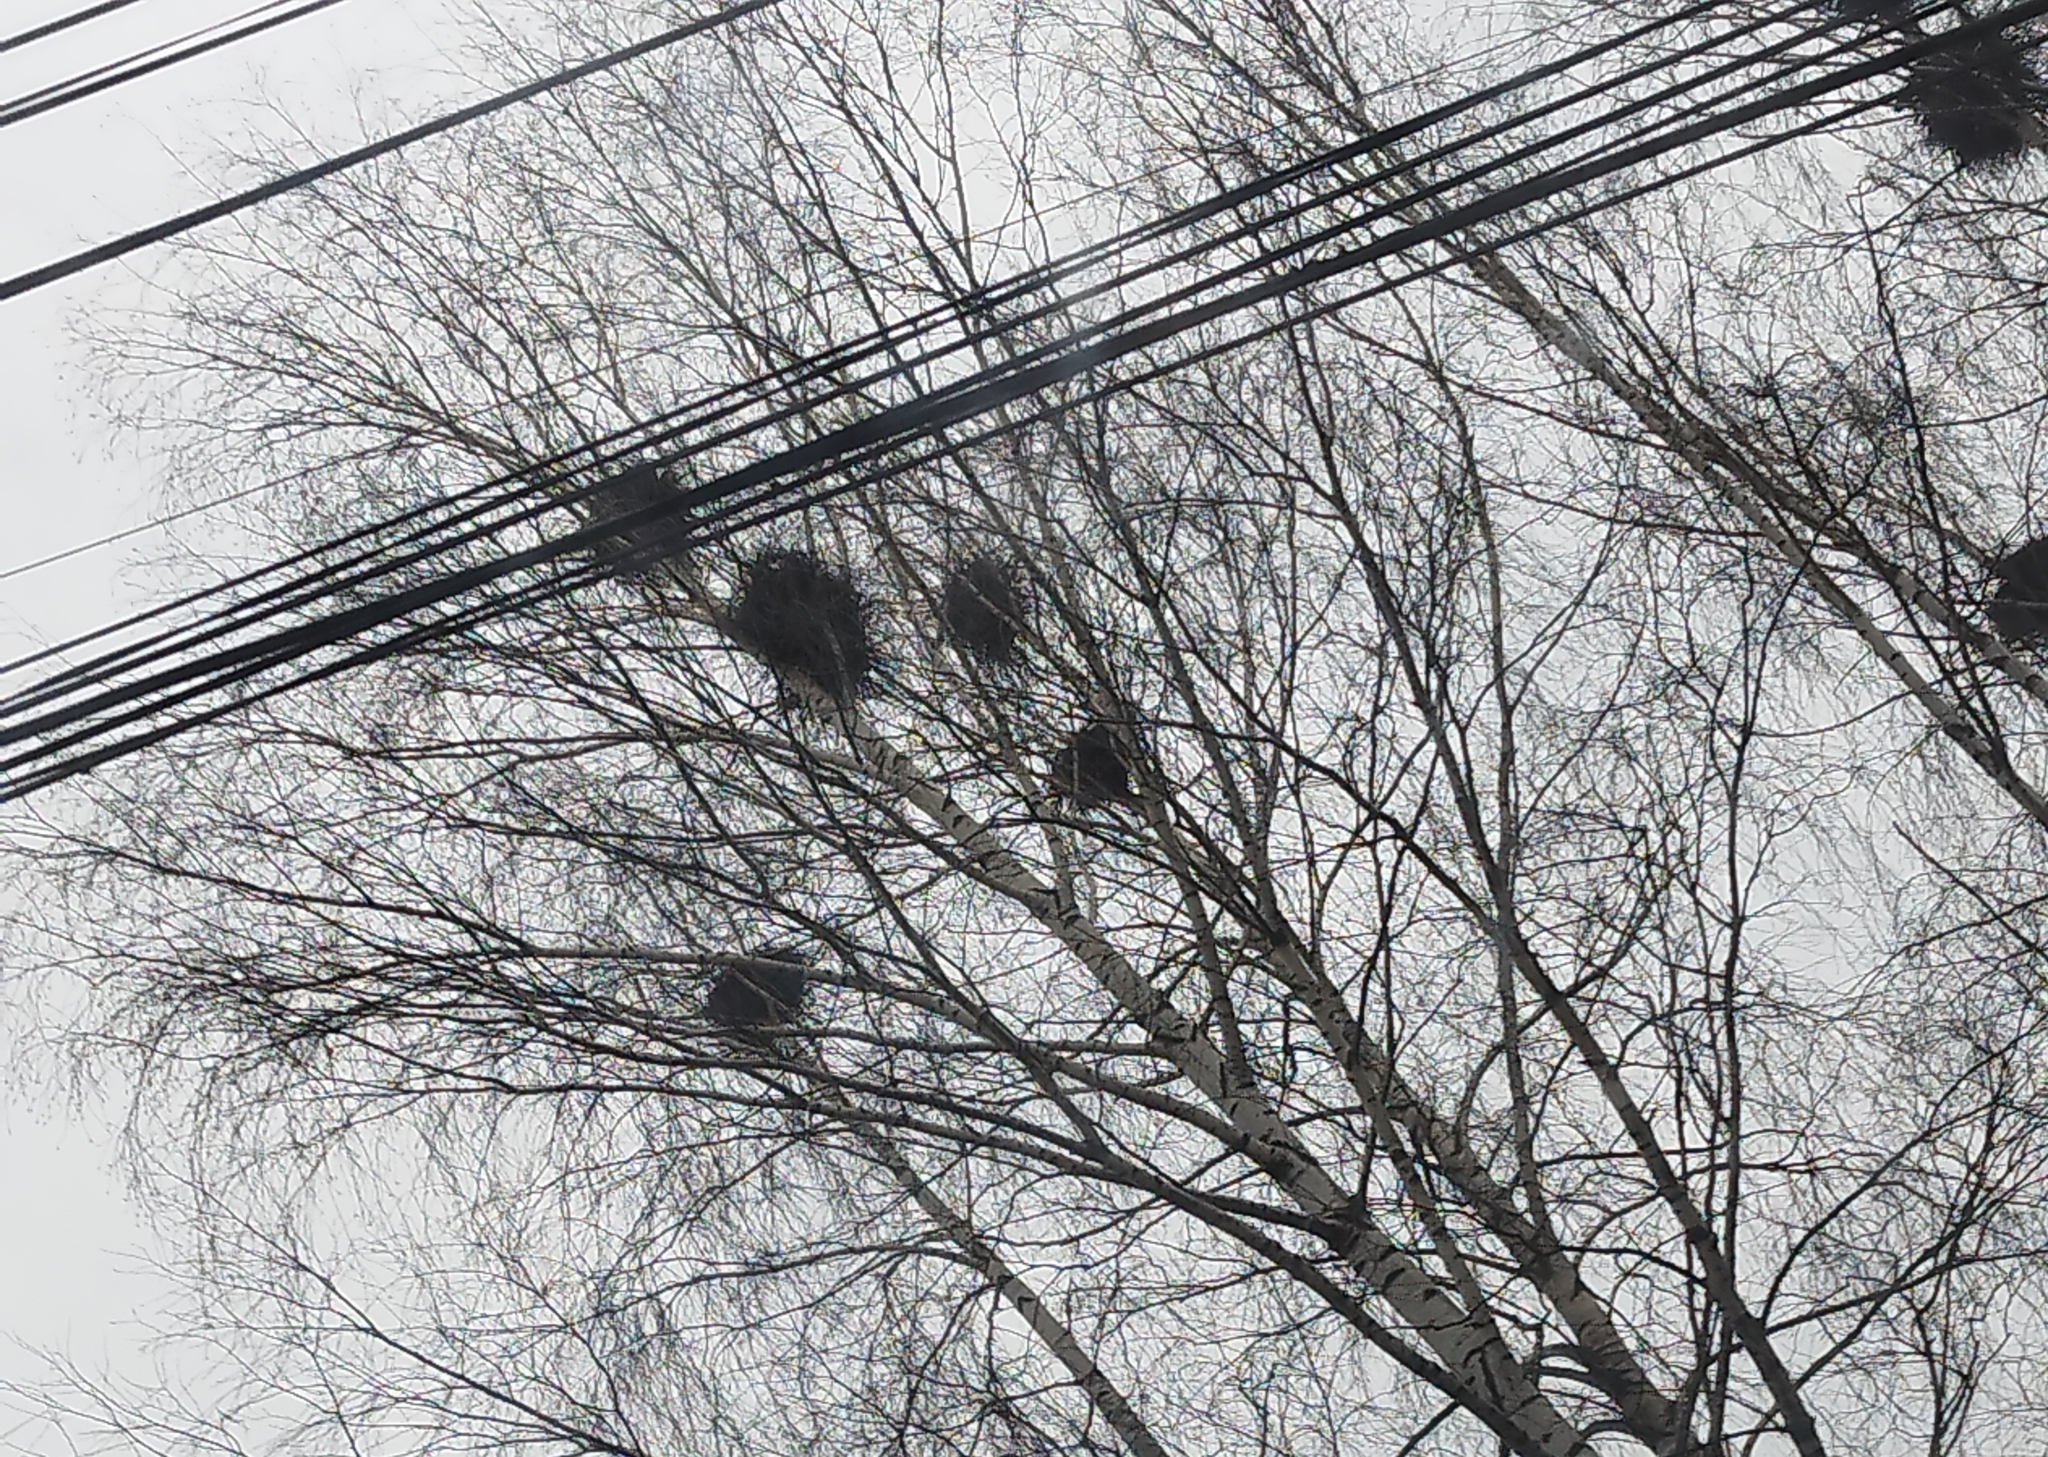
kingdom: Animalia
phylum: Chordata
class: Aves
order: Passeriformes
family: Corvidae
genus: Corvus
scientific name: Corvus frugilegus
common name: Rook
